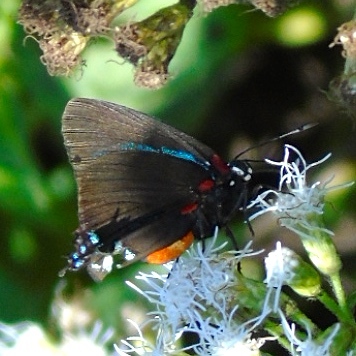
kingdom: Animalia
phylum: Arthropoda
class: Insecta
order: Lepidoptera
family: Lycaenidae
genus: Atlides
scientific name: Atlides
